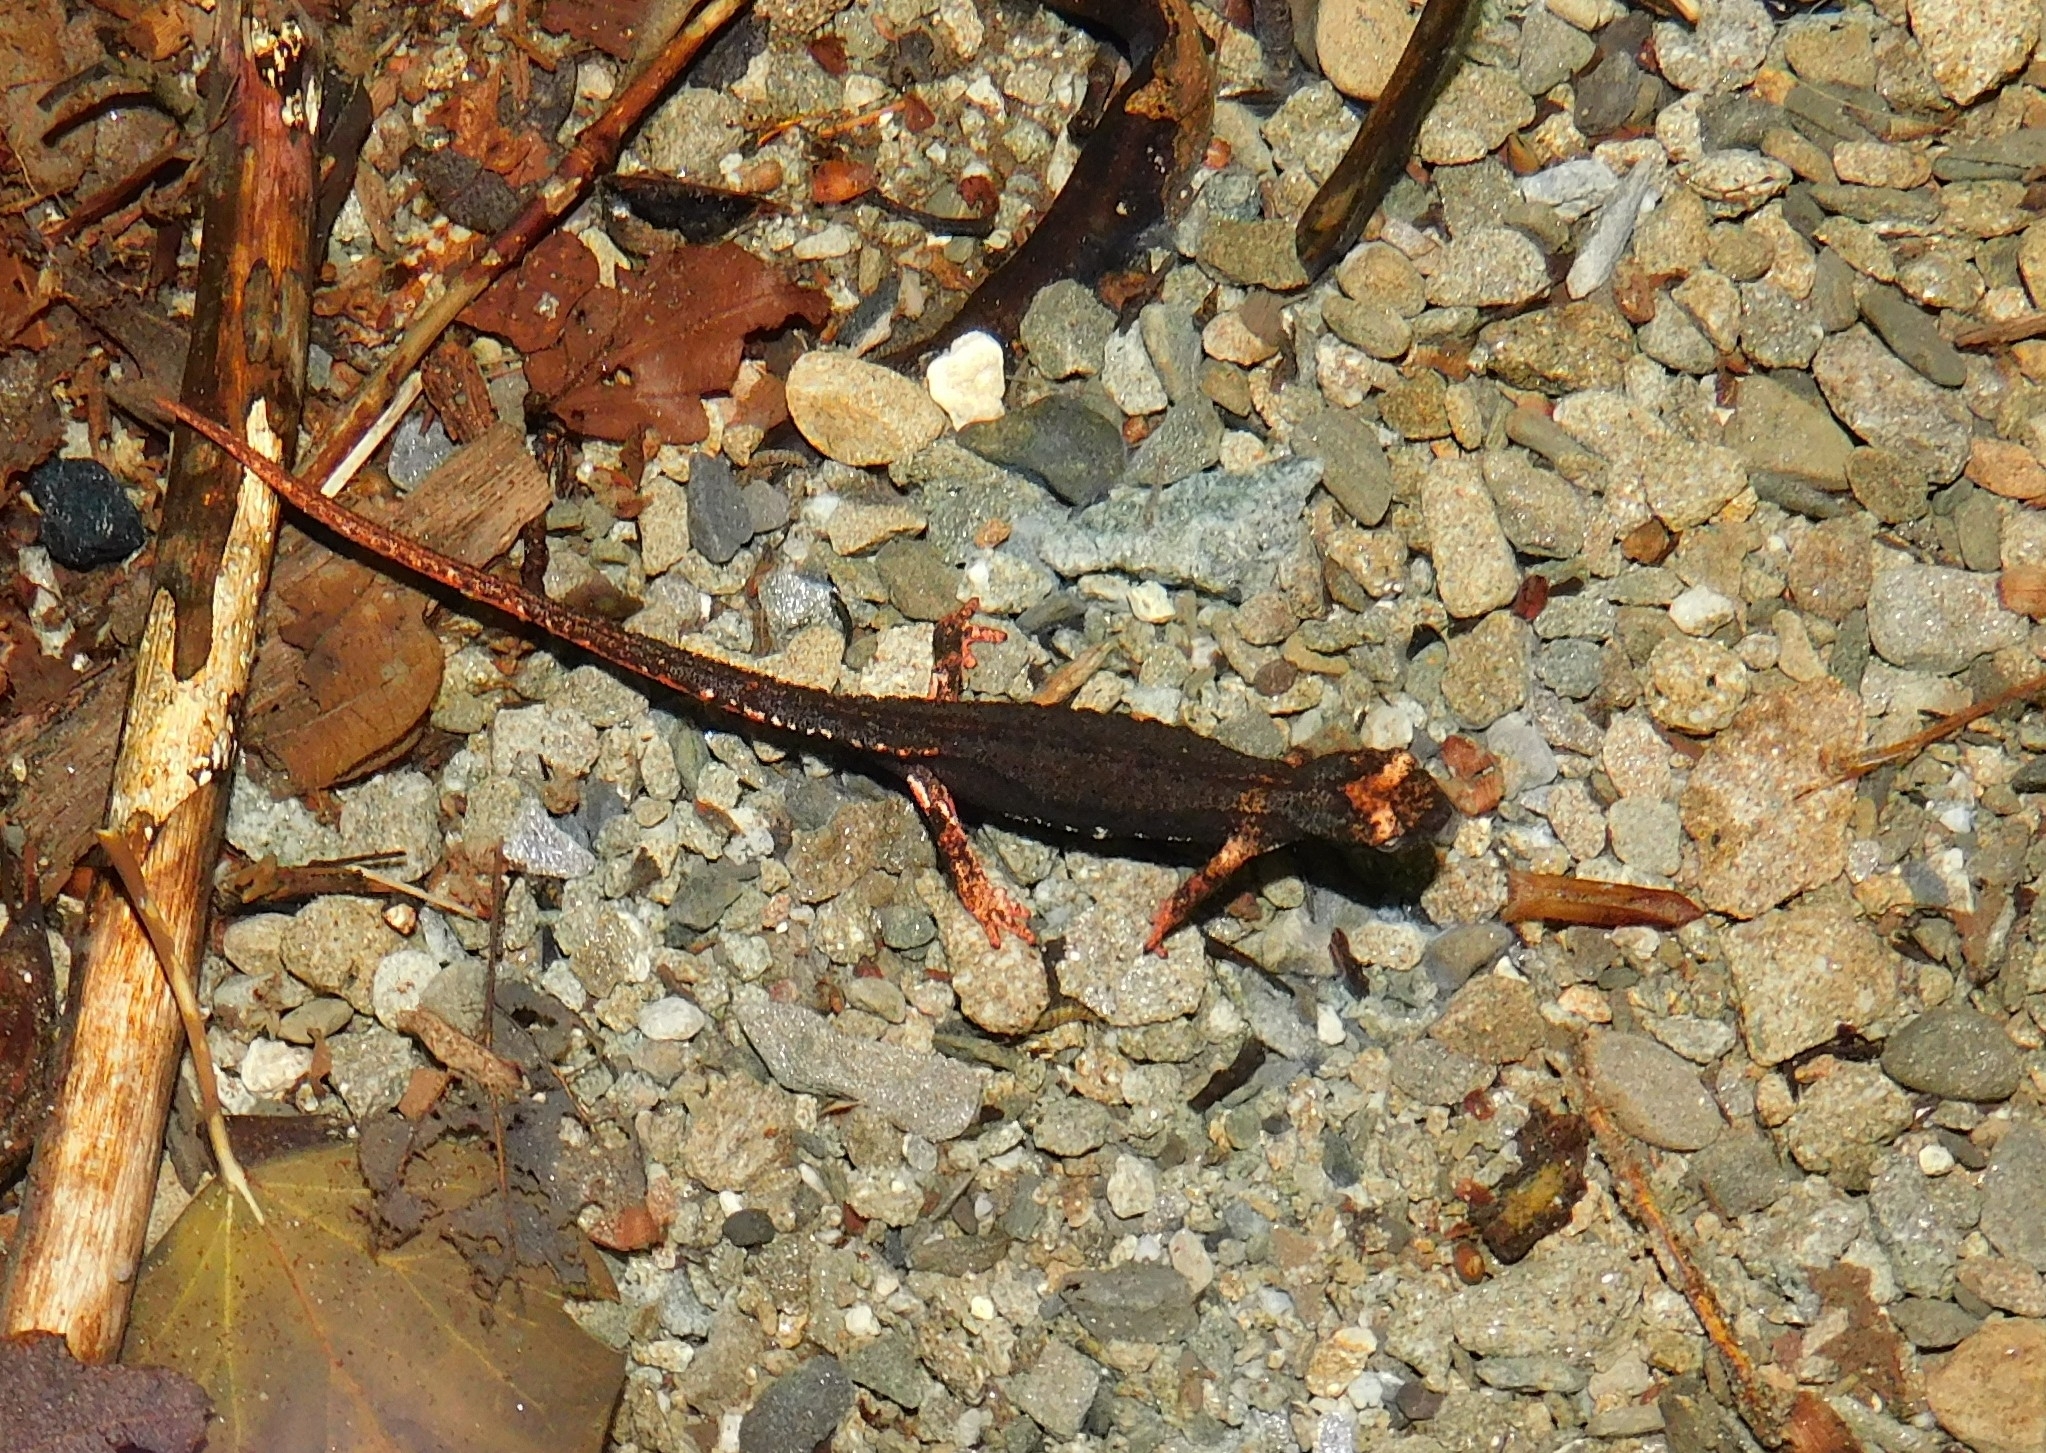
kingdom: Animalia
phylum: Chordata
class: Amphibia
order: Caudata
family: Salamandridae
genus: Salamandrina
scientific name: Salamandrina perspicillata
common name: Northern spectacled salamander
